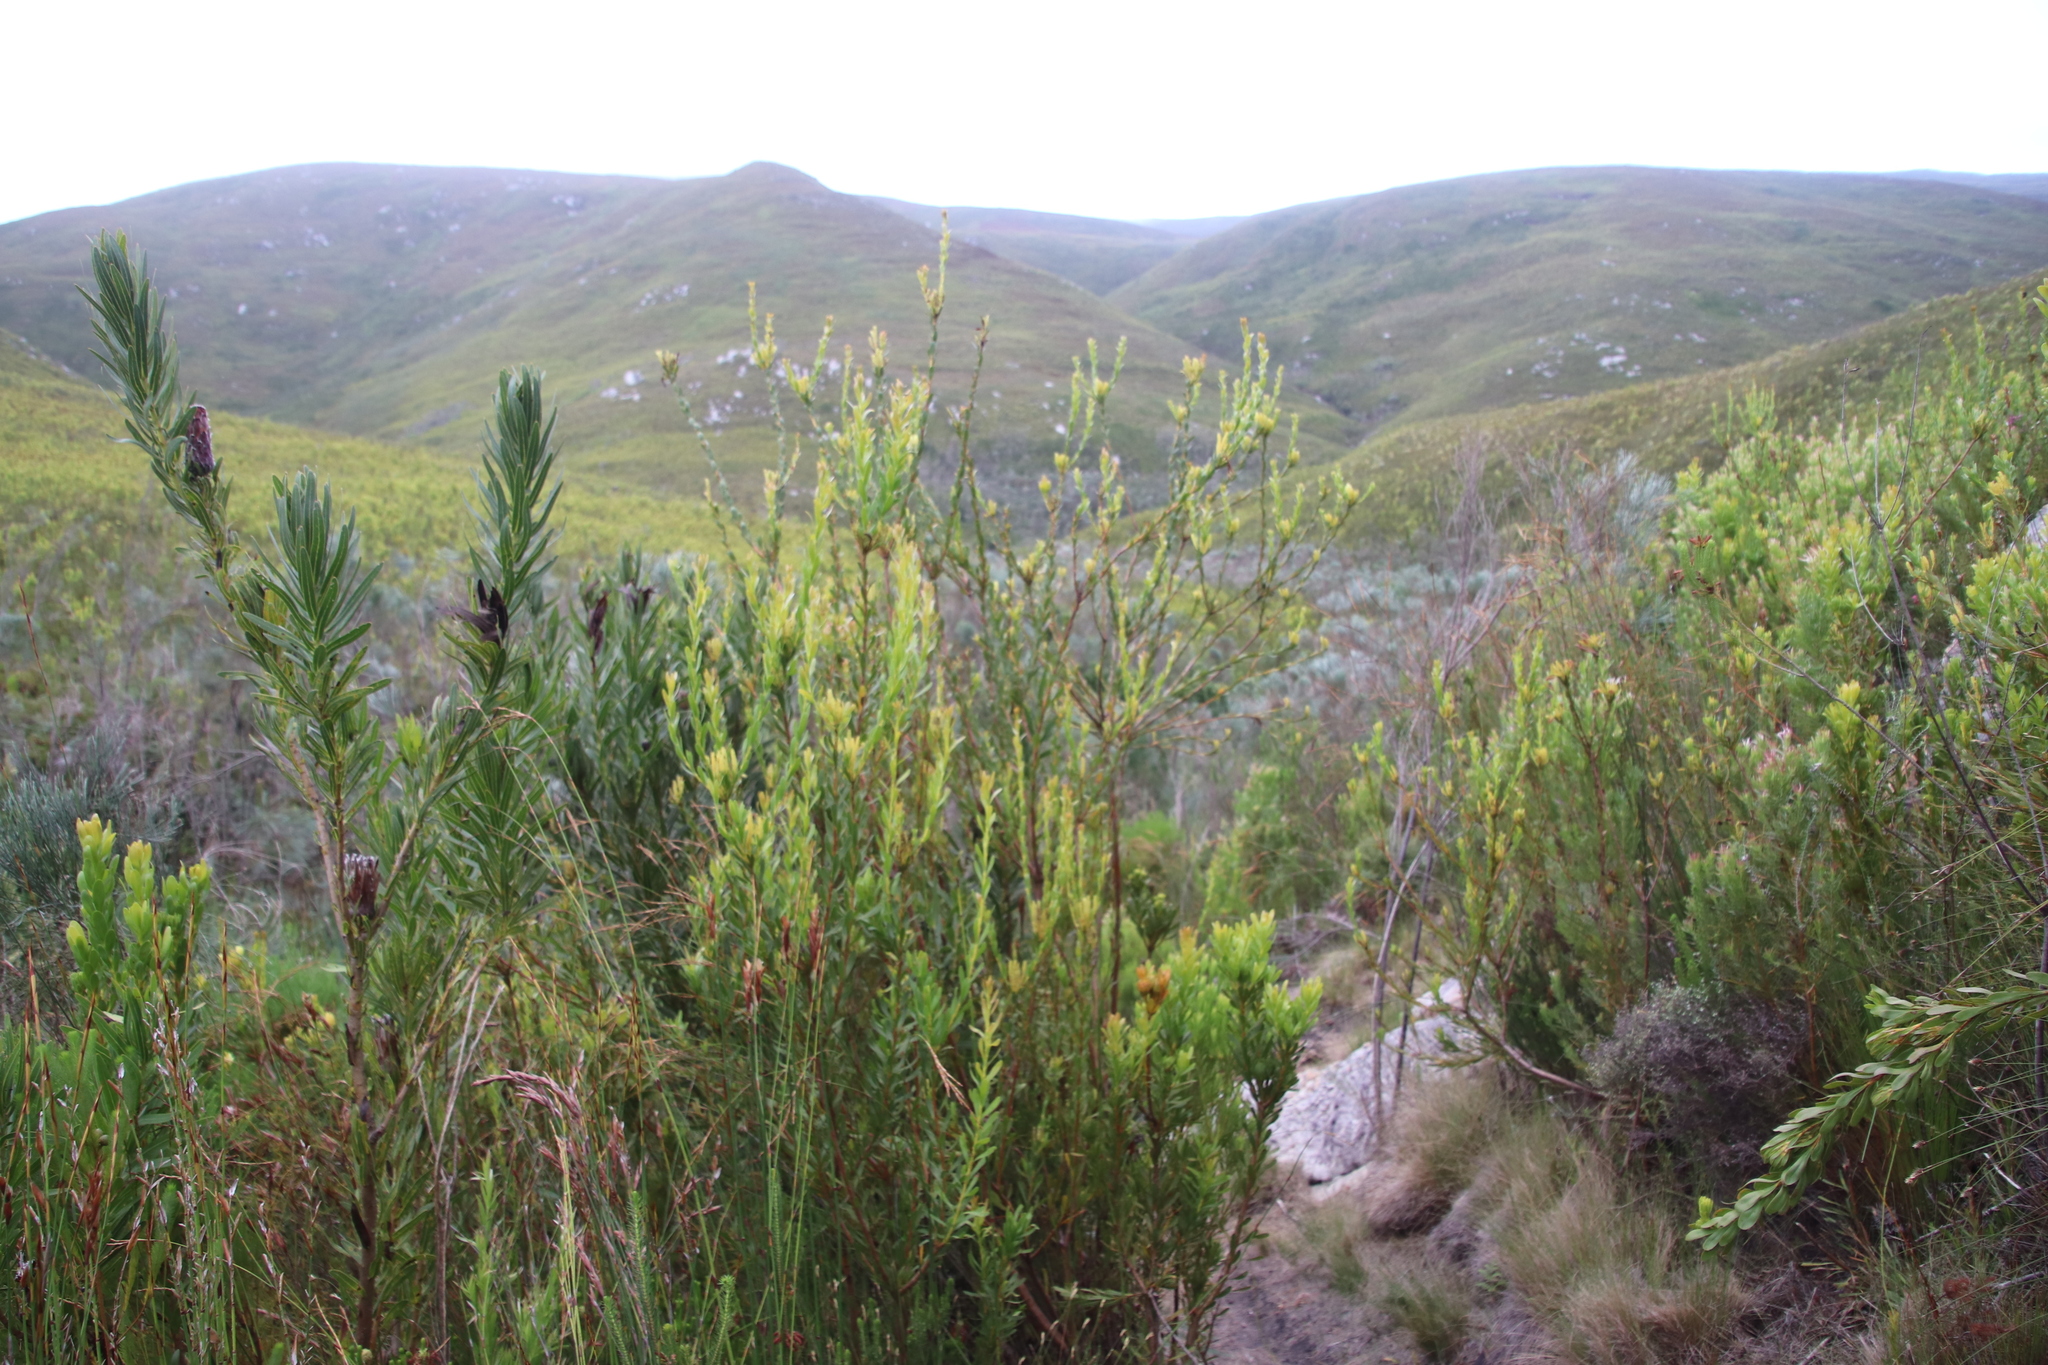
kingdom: Plantae
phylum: Tracheophyta
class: Magnoliopsida
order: Proteales
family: Proteaceae
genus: Aulax
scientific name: Aulax umbellata
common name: Broad-leaf featherbush
